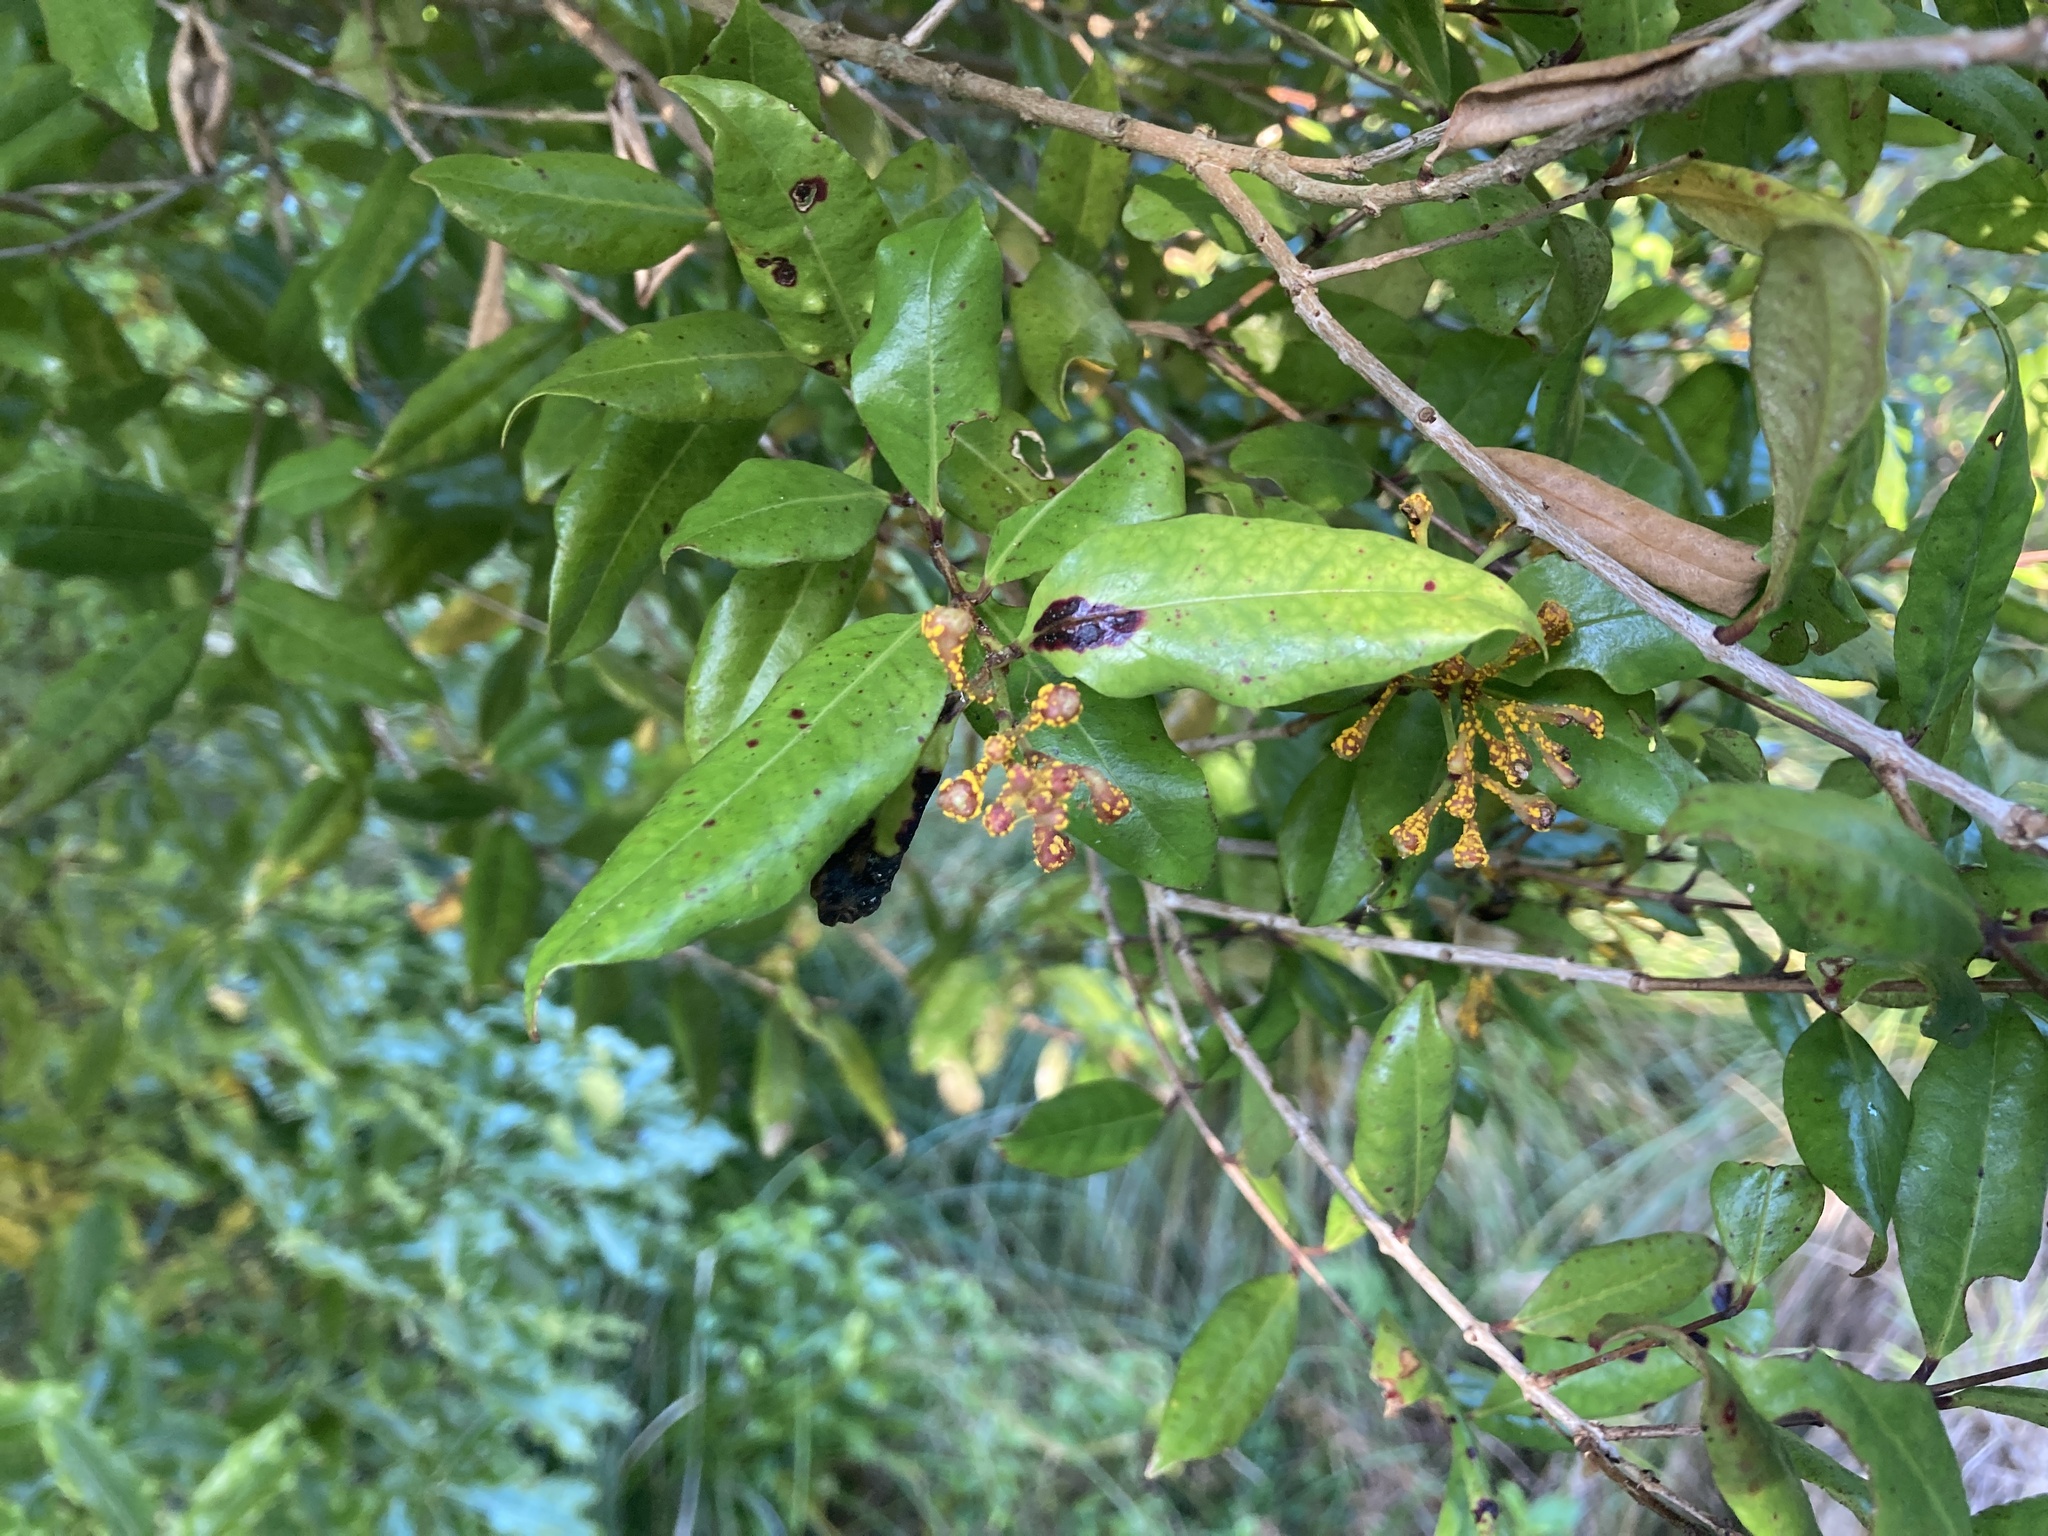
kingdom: Fungi
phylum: Basidiomycota
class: Pucciniomycetes
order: Pucciniales
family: Sphaerophragmiaceae
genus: Austropuccinia
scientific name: Austropuccinia psidii
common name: Myrtle rust
